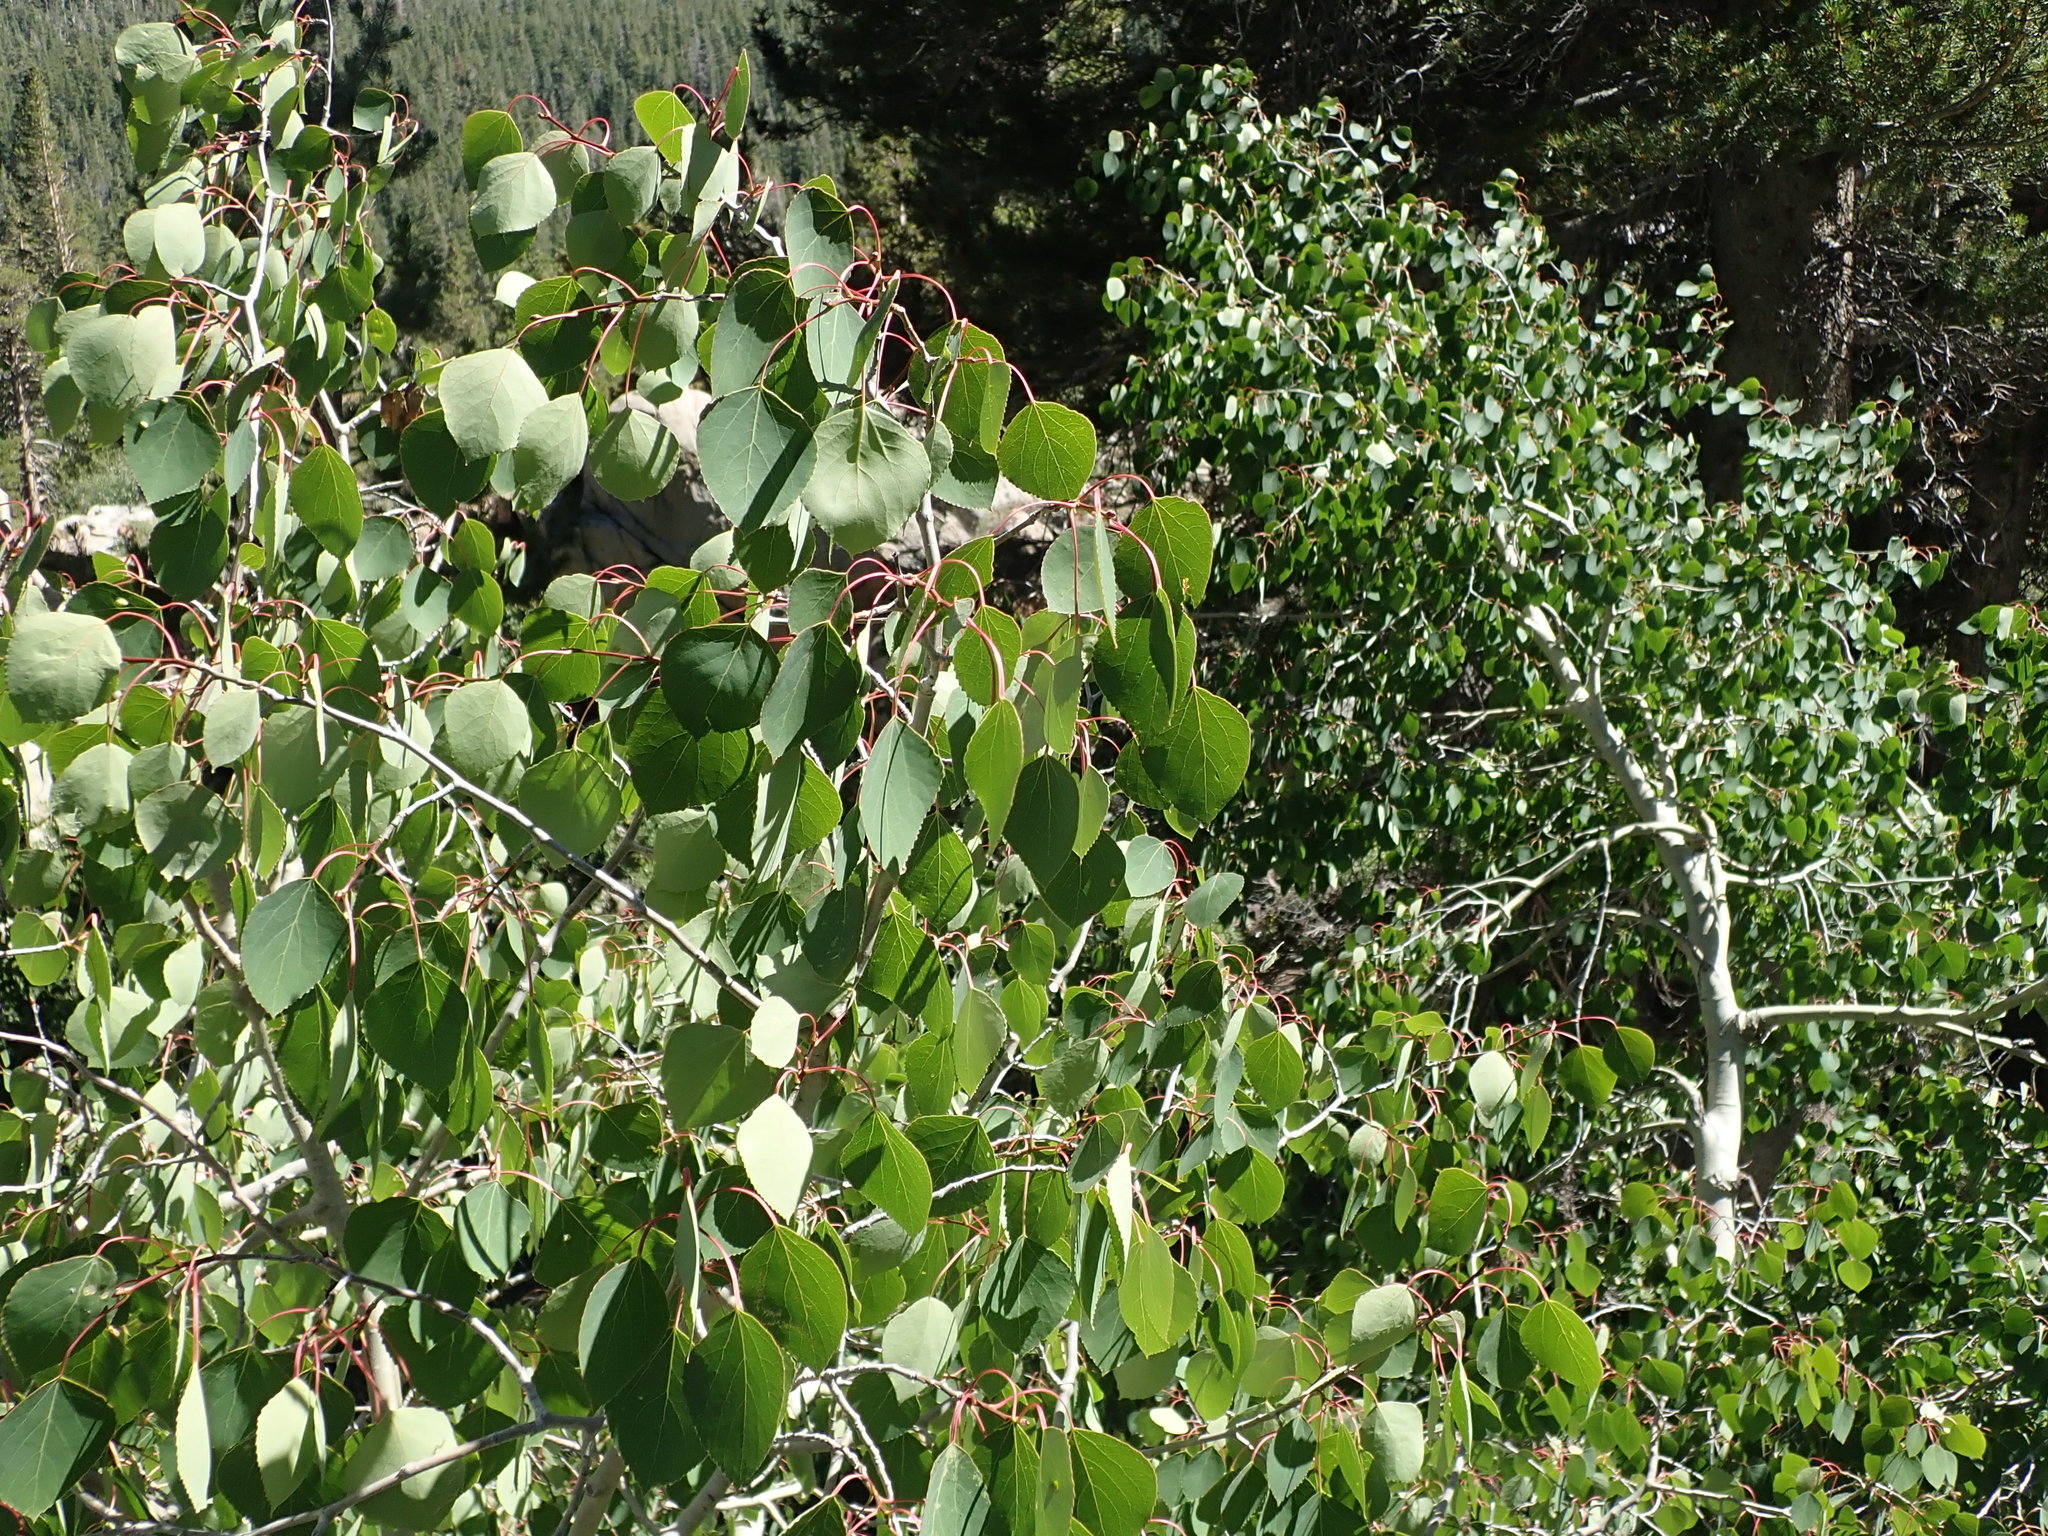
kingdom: Plantae
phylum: Tracheophyta
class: Magnoliopsida
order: Malpighiales
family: Salicaceae
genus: Populus
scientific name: Populus tremuloides
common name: Quaking aspen
